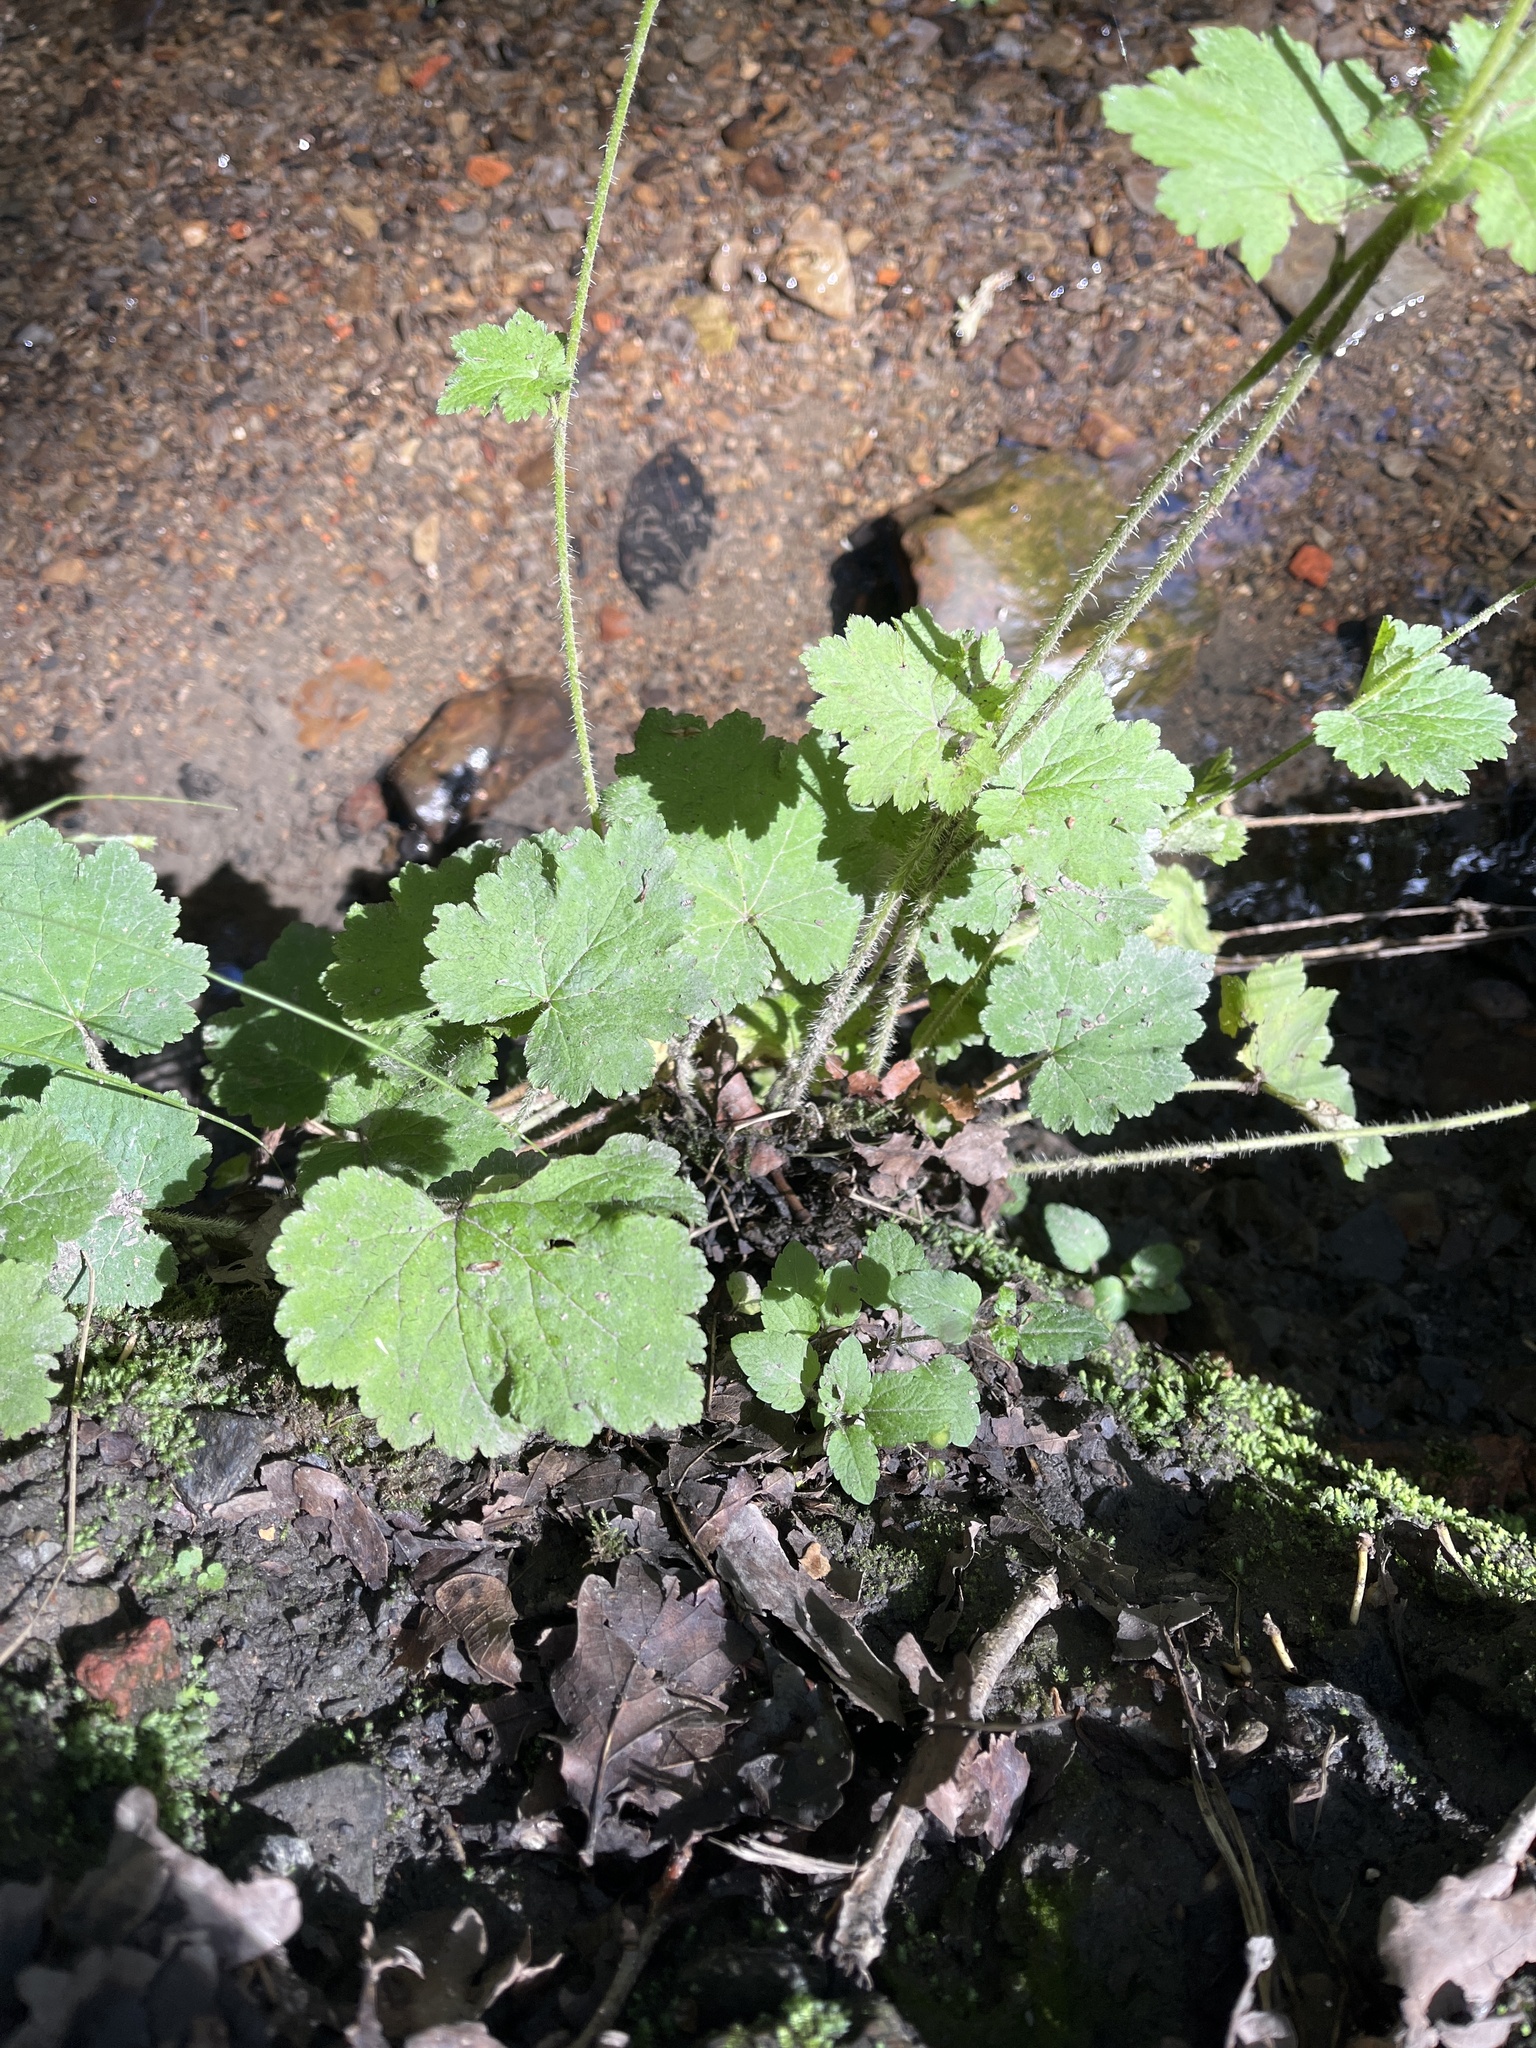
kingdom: Plantae
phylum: Tracheophyta
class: Magnoliopsida
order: Saxifragales
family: Saxifragaceae
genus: Tellima
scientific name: Tellima grandiflora
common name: Fringecups
